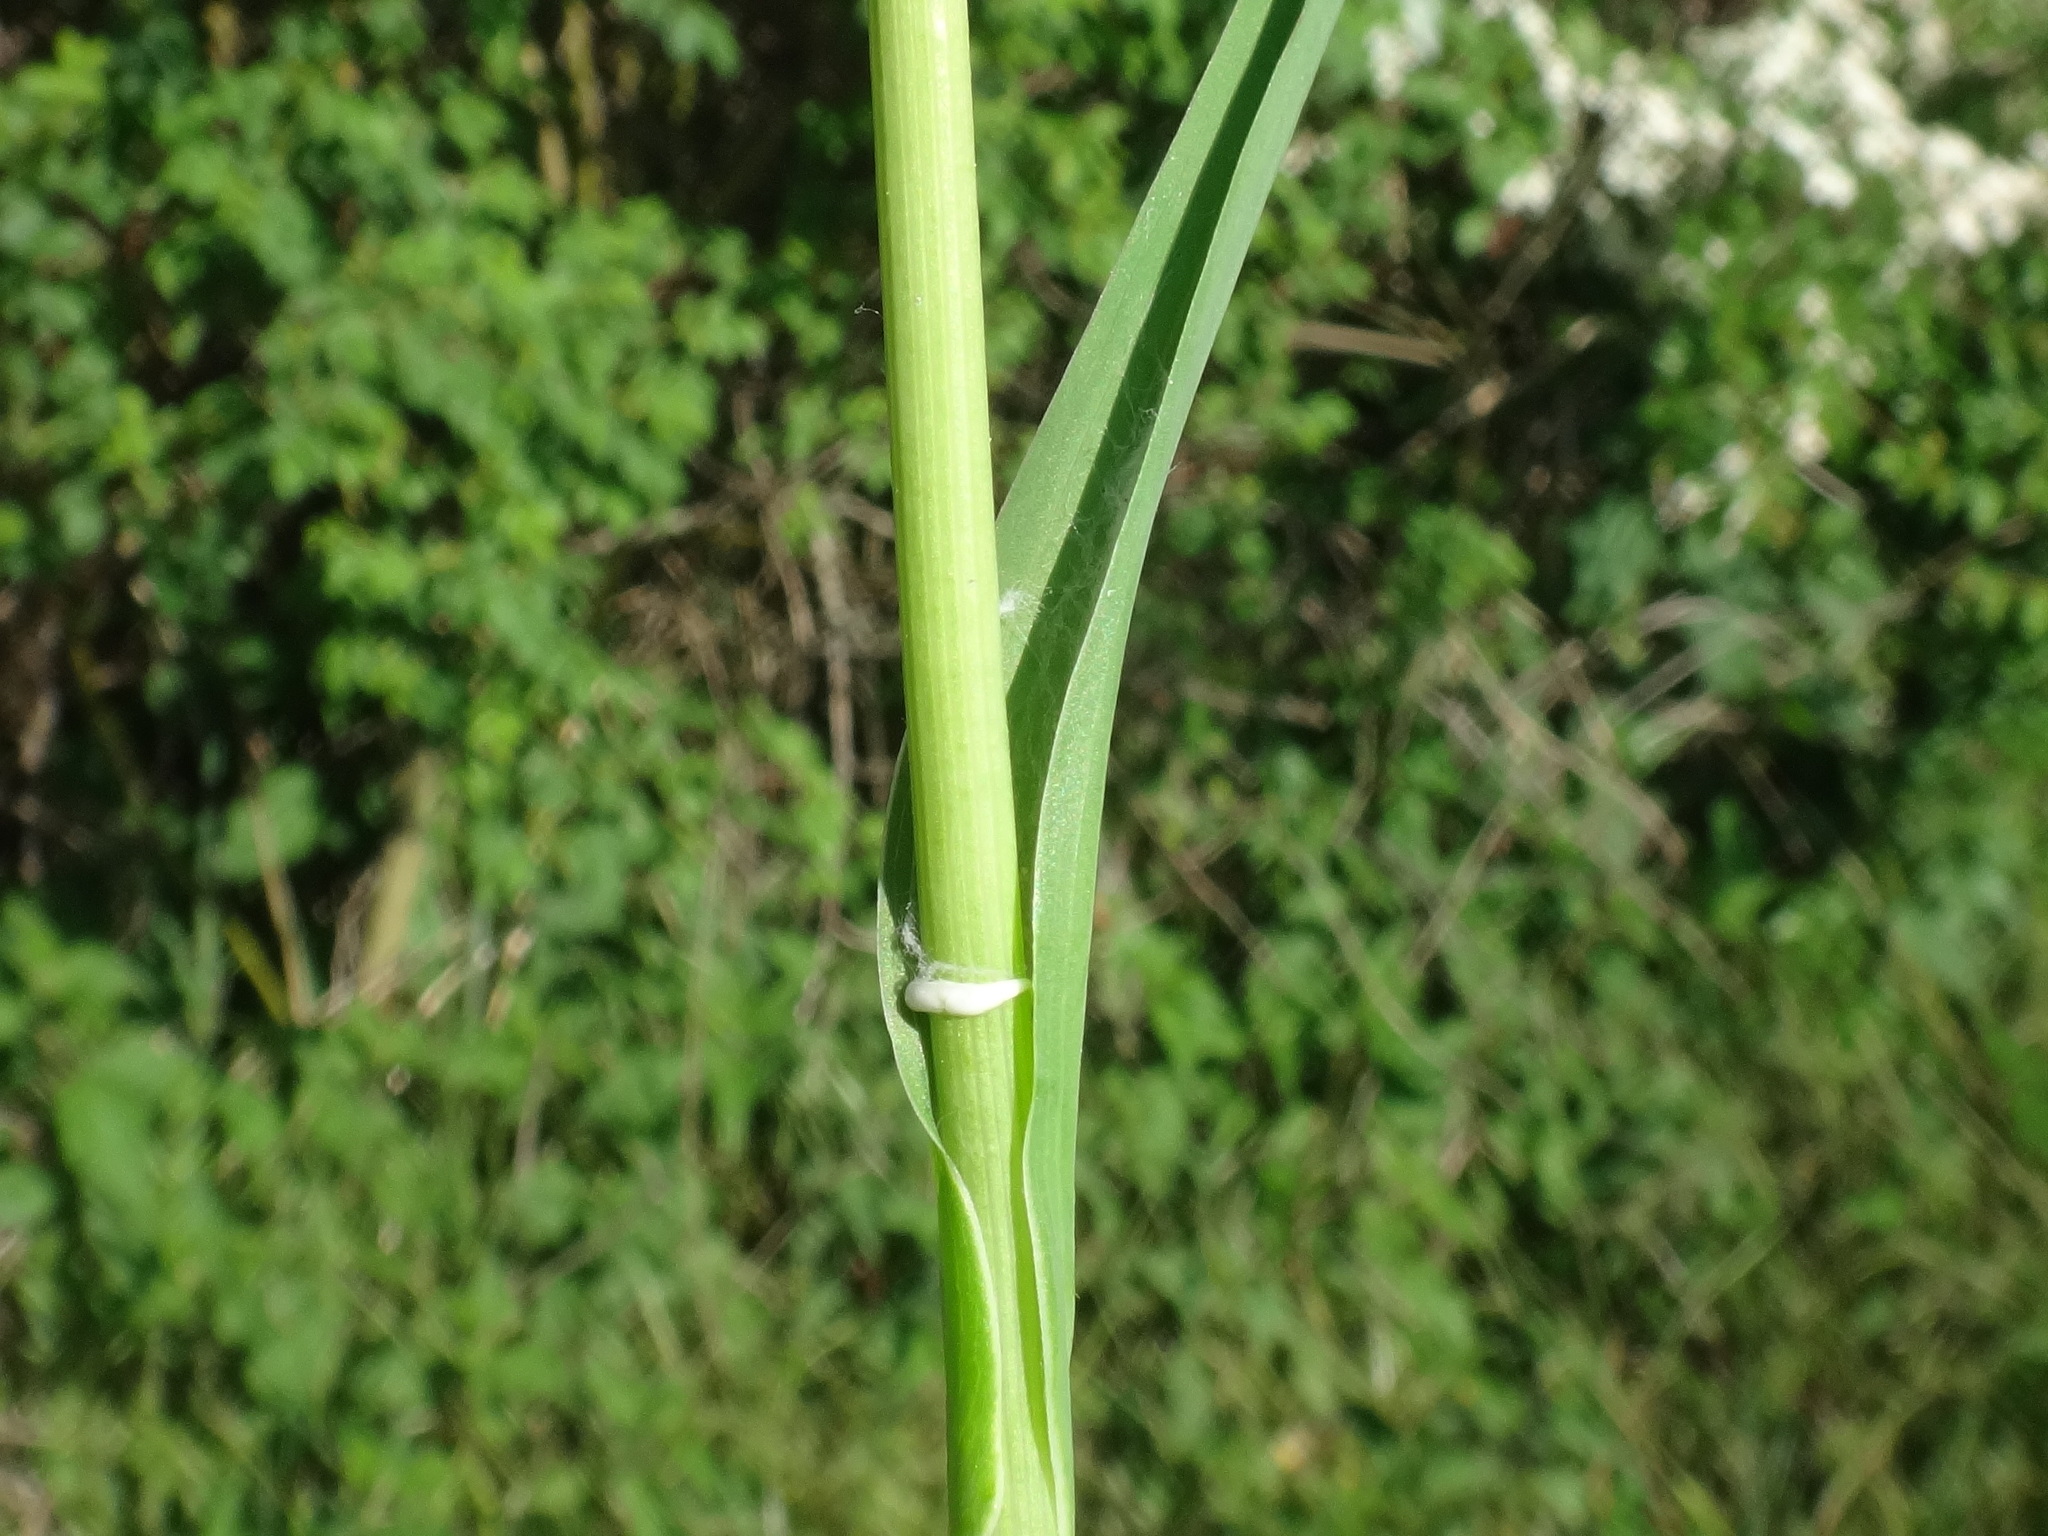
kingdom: Plantae
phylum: Tracheophyta
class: Magnoliopsida
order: Asterales
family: Asteraceae
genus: Tragopogon
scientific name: Tragopogon minor
